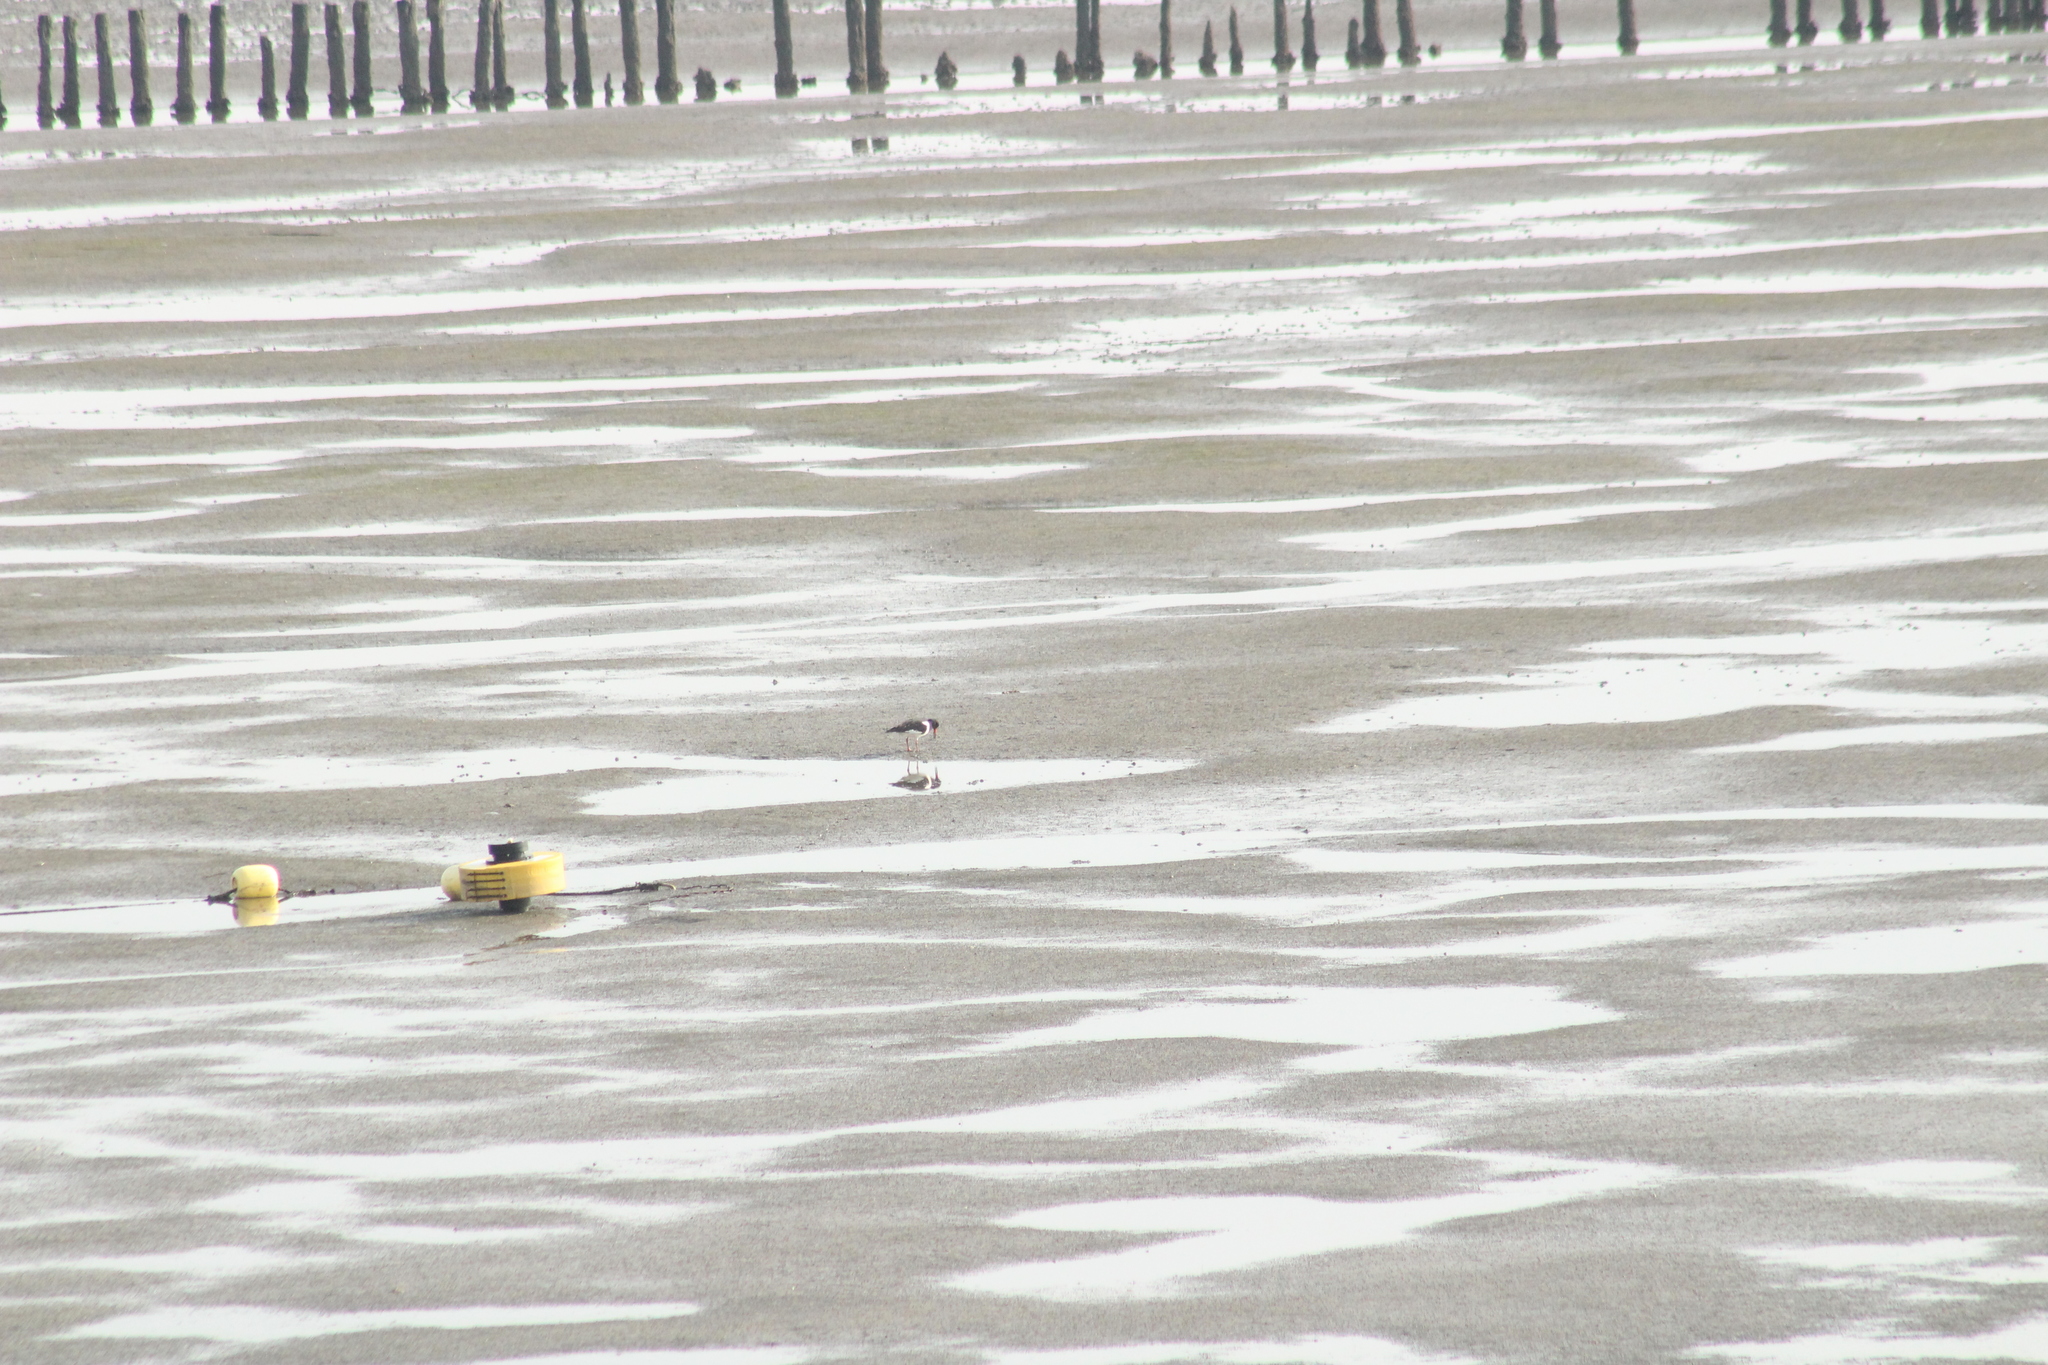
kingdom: Animalia
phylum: Chordata
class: Aves
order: Charadriiformes
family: Haematopodidae
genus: Haematopus
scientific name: Haematopus ostralegus
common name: Eurasian oystercatcher
